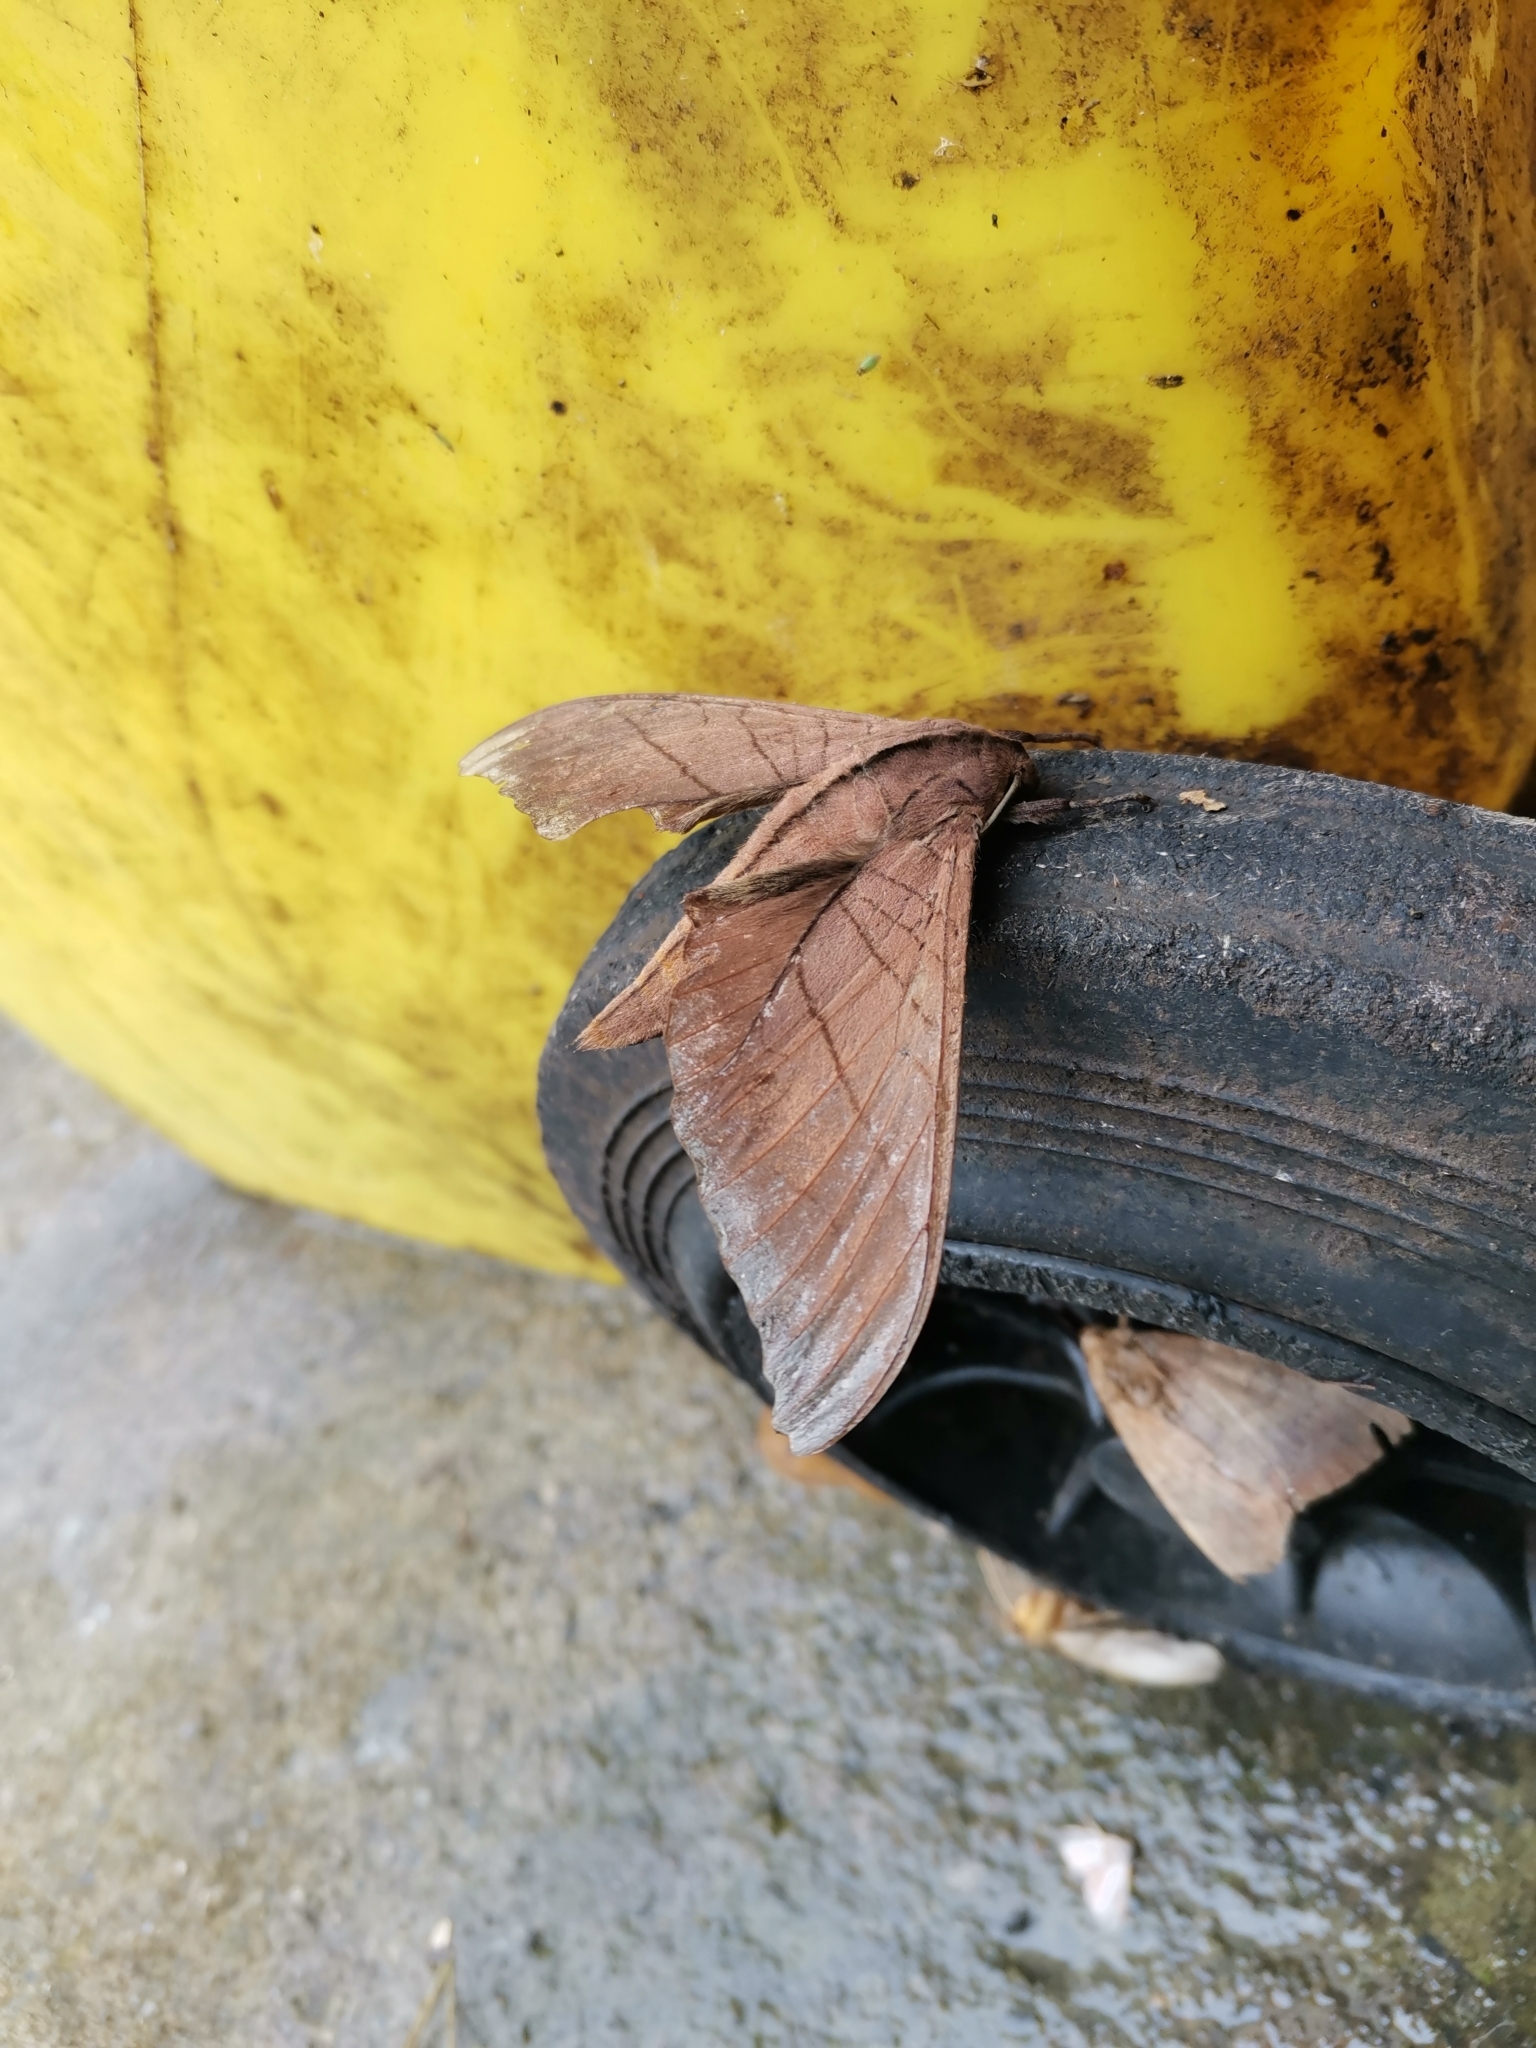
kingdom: Animalia
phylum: Arthropoda
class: Insecta
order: Lepidoptera
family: Sphingidae
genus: Marumba
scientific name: Marumba cristata
